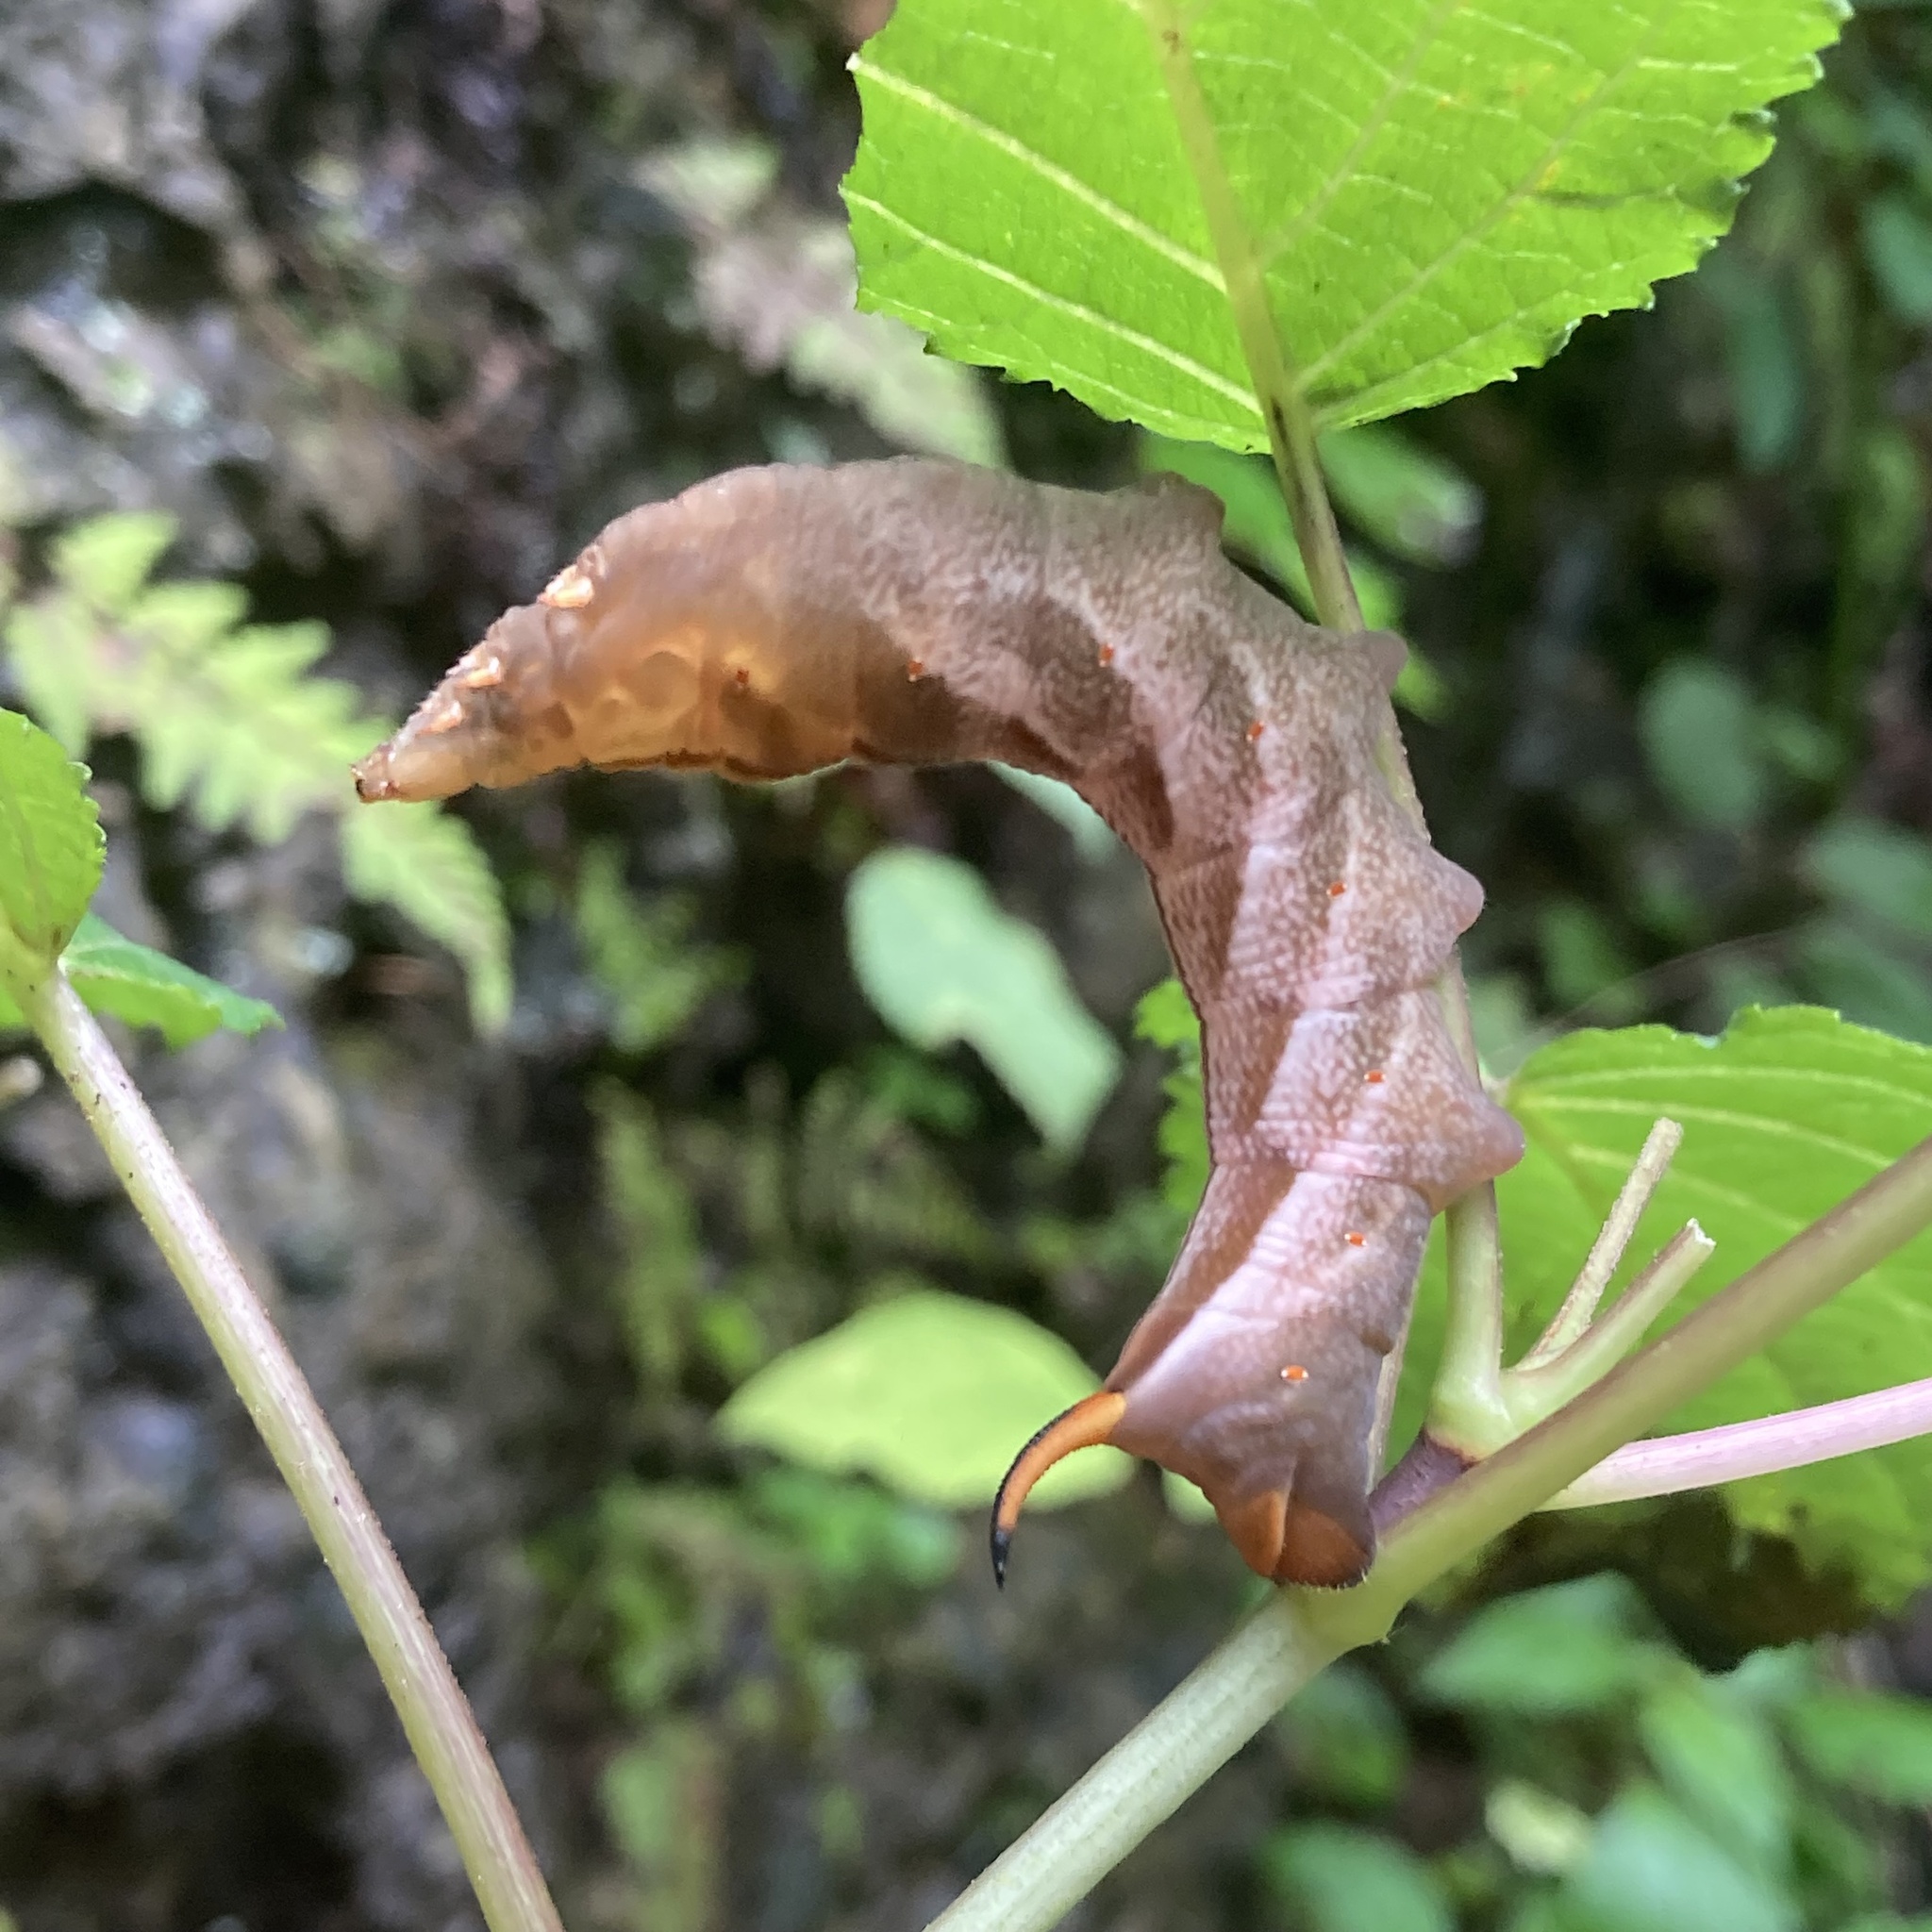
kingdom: Animalia
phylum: Arthropoda
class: Insecta
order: Lepidoptera
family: Sphingidae
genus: Darapsa
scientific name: Darapsa versicolor
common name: Hydrangea sphinx
